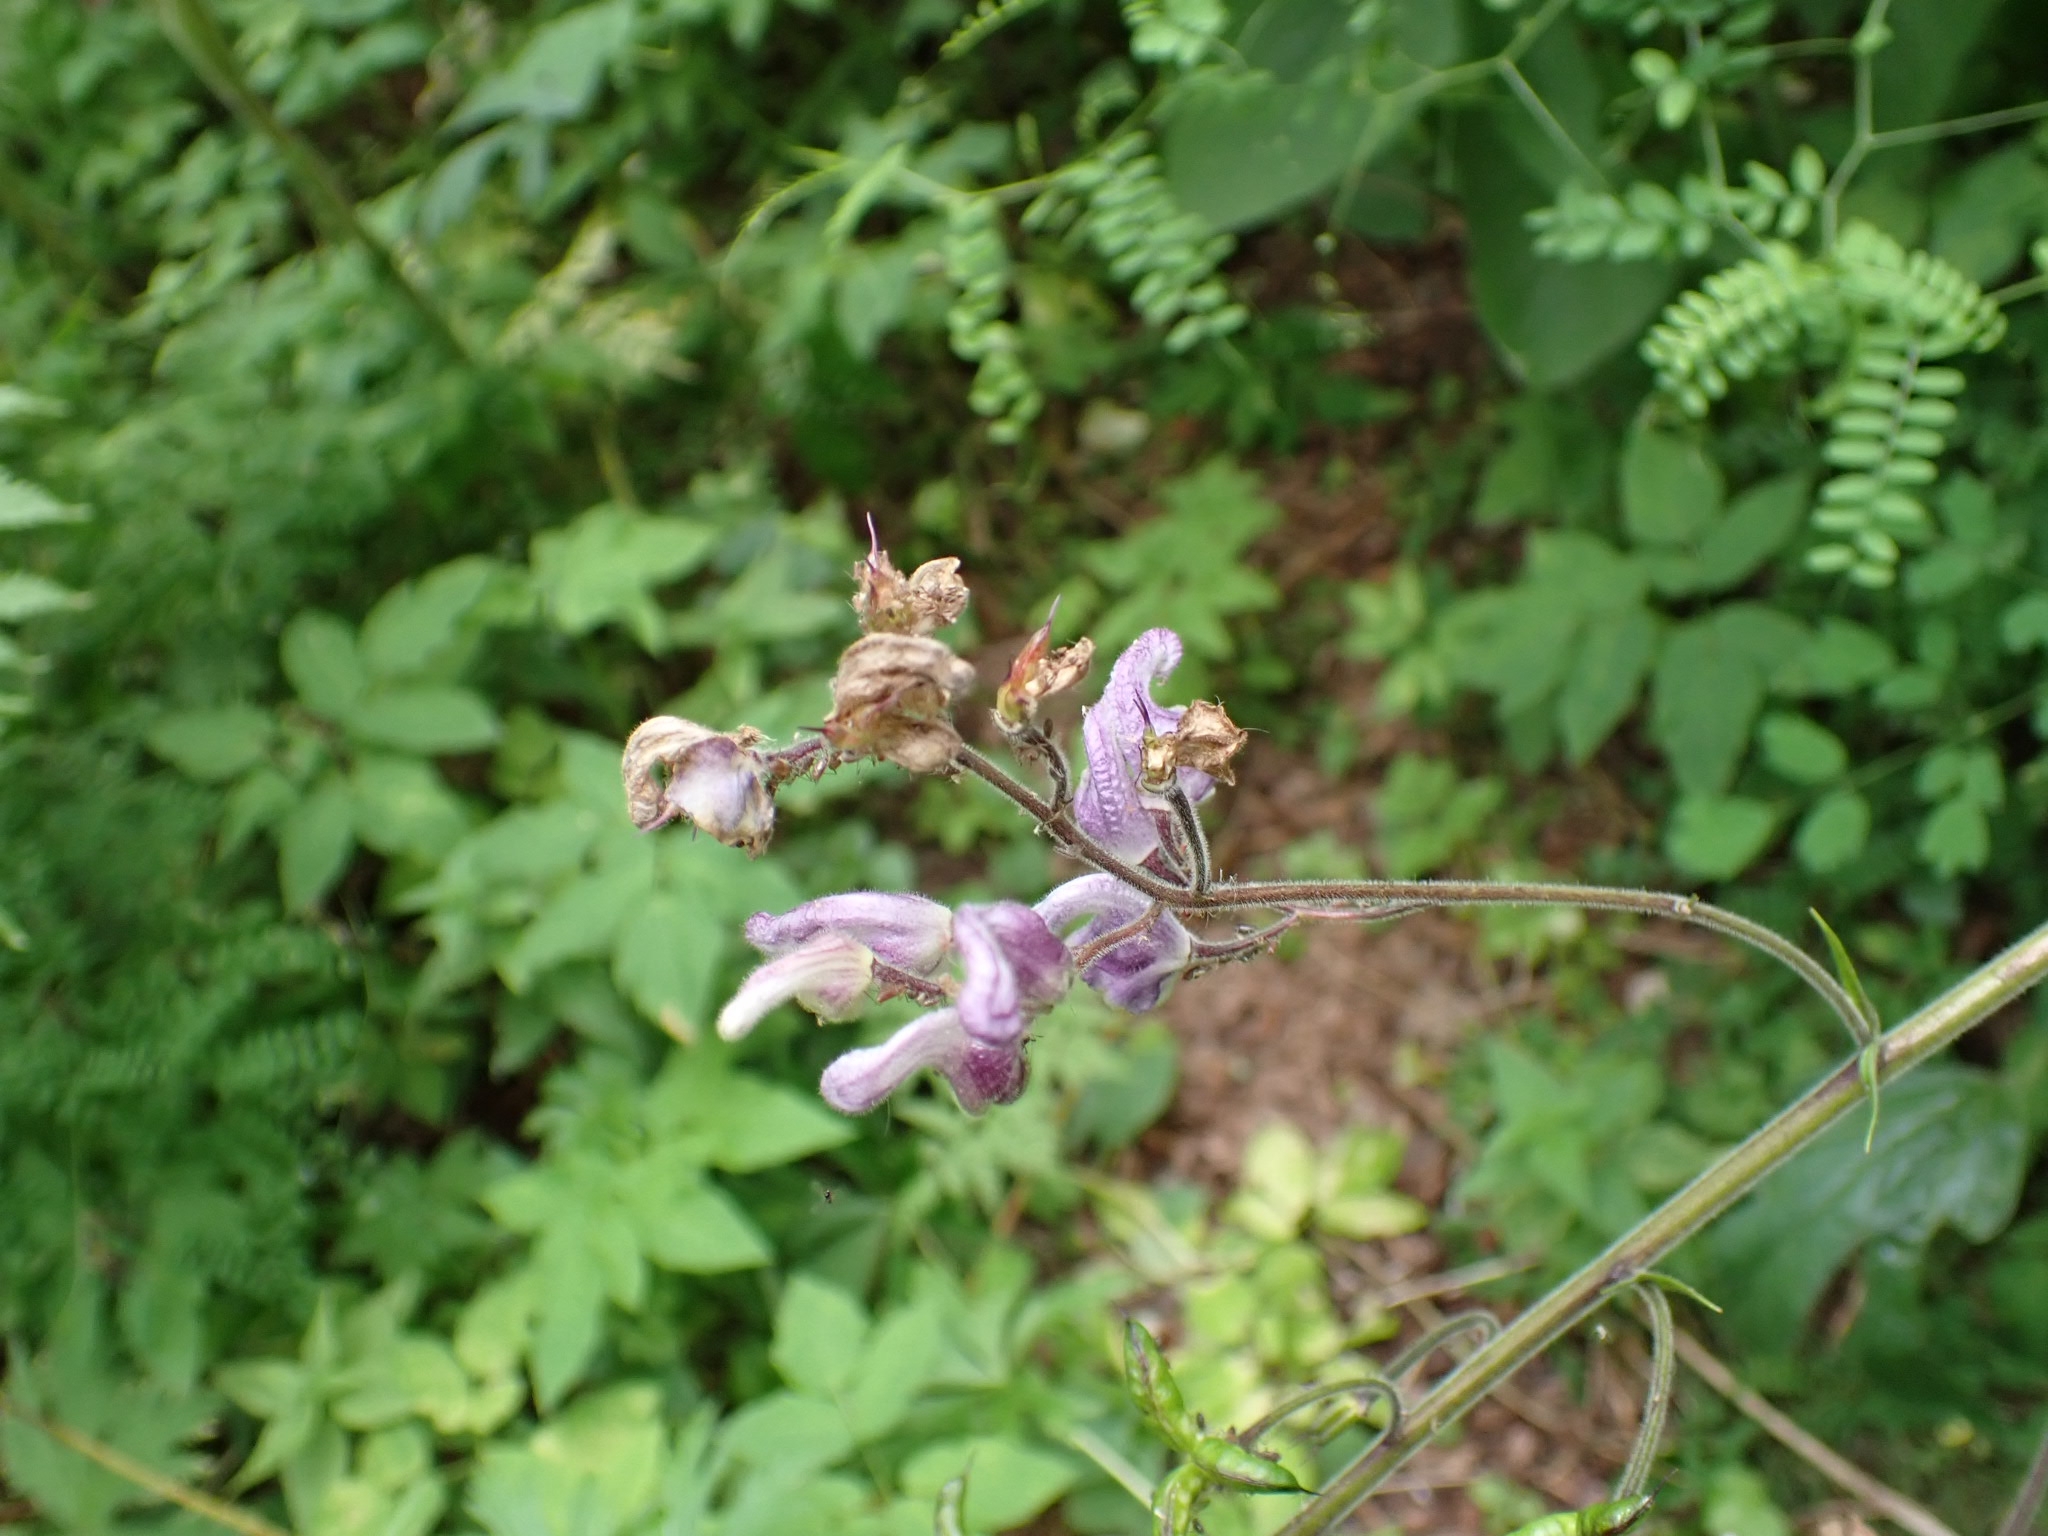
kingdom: Plantae
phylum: Tracheophyta
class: Magnoliopsida
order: Ranunculales
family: Ranunculaceae
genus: Aconitum
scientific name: Aconitum septentrionale
